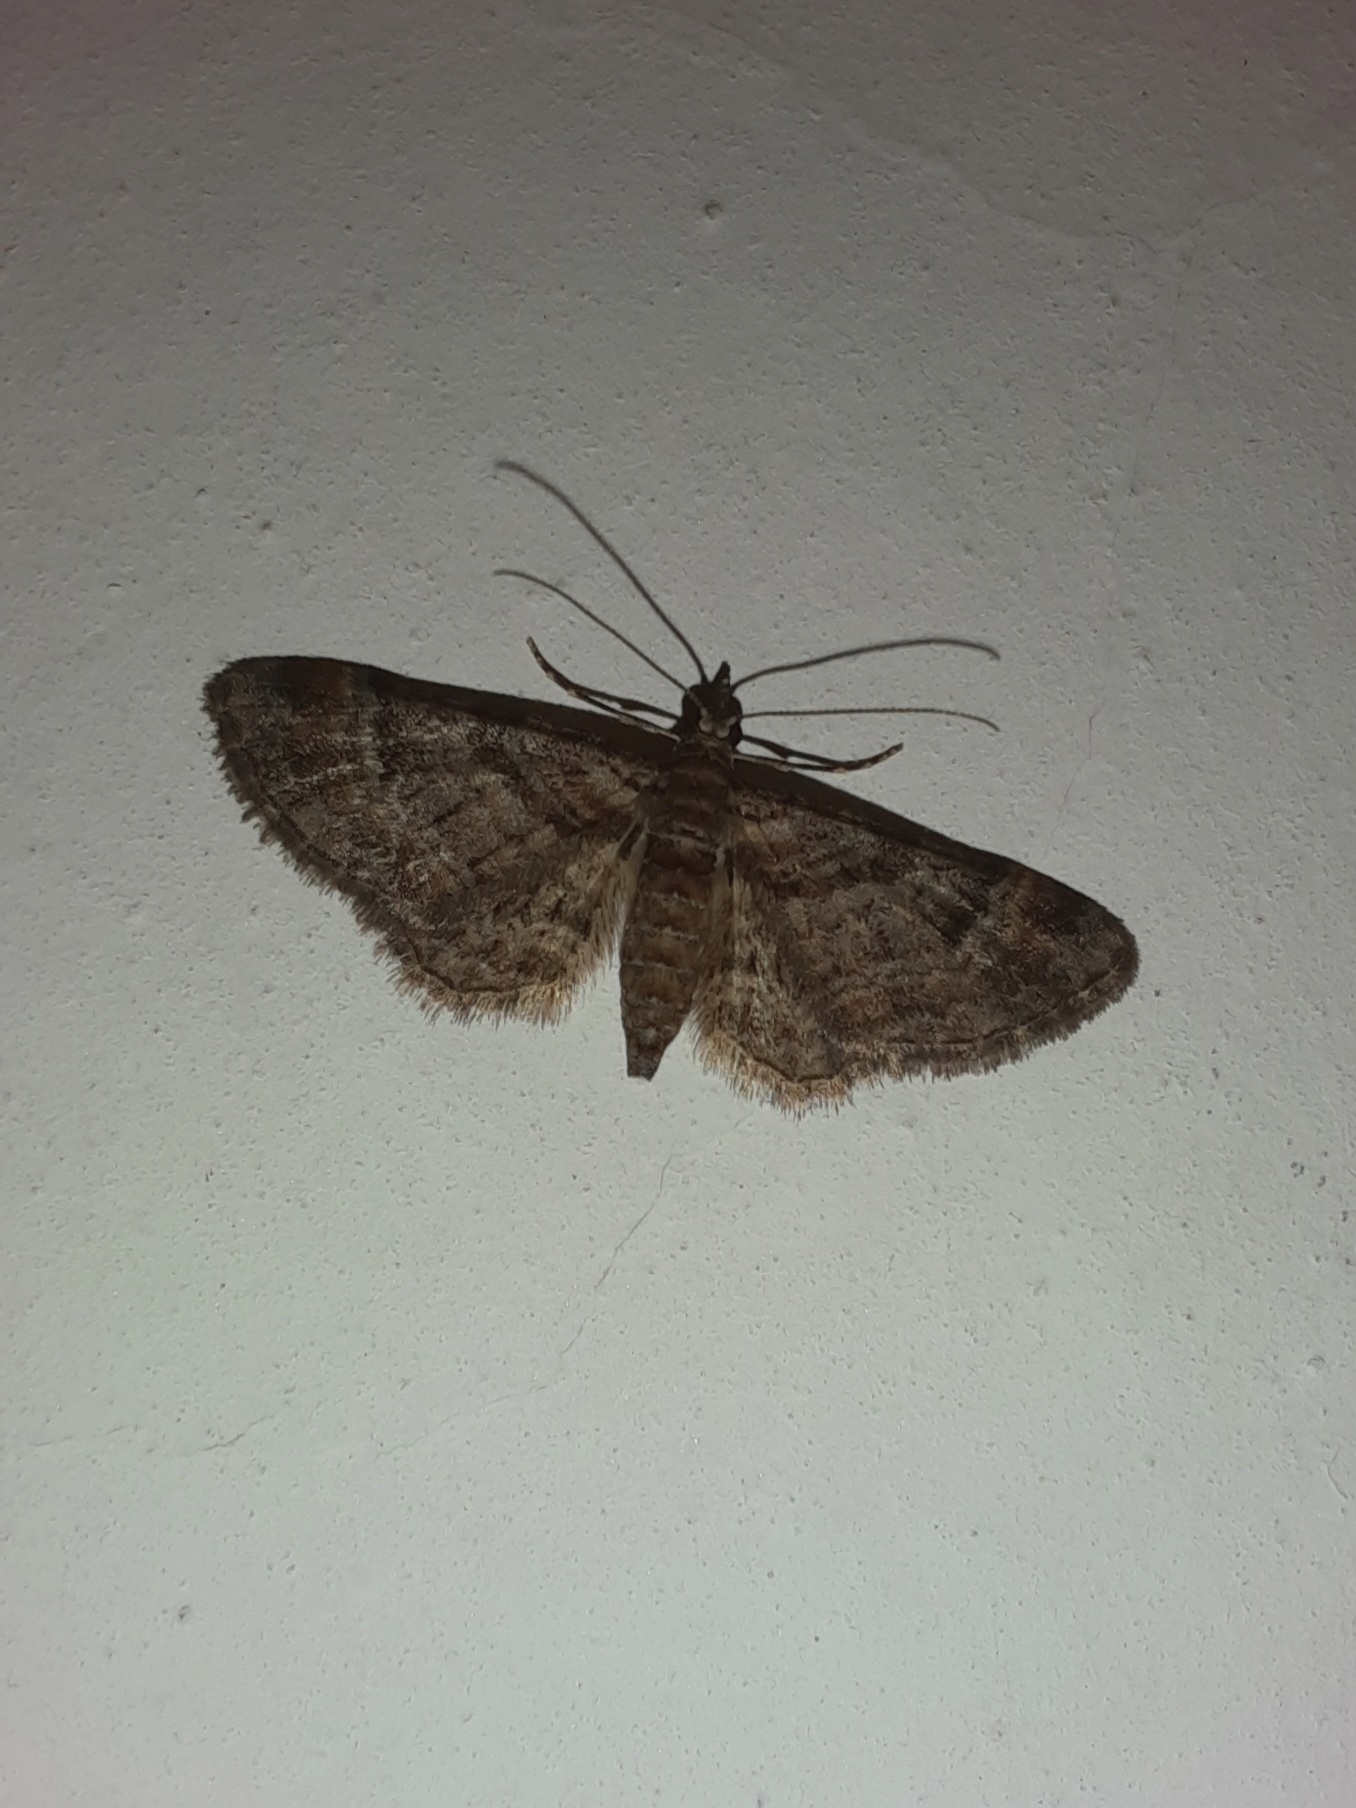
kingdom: Animalia
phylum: Arthropoda
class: Insecta
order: Lepidoptera
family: Geometridae
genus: Gymnoscelis
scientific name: Gymnoscelis rufifasciata
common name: Double-striped pug
